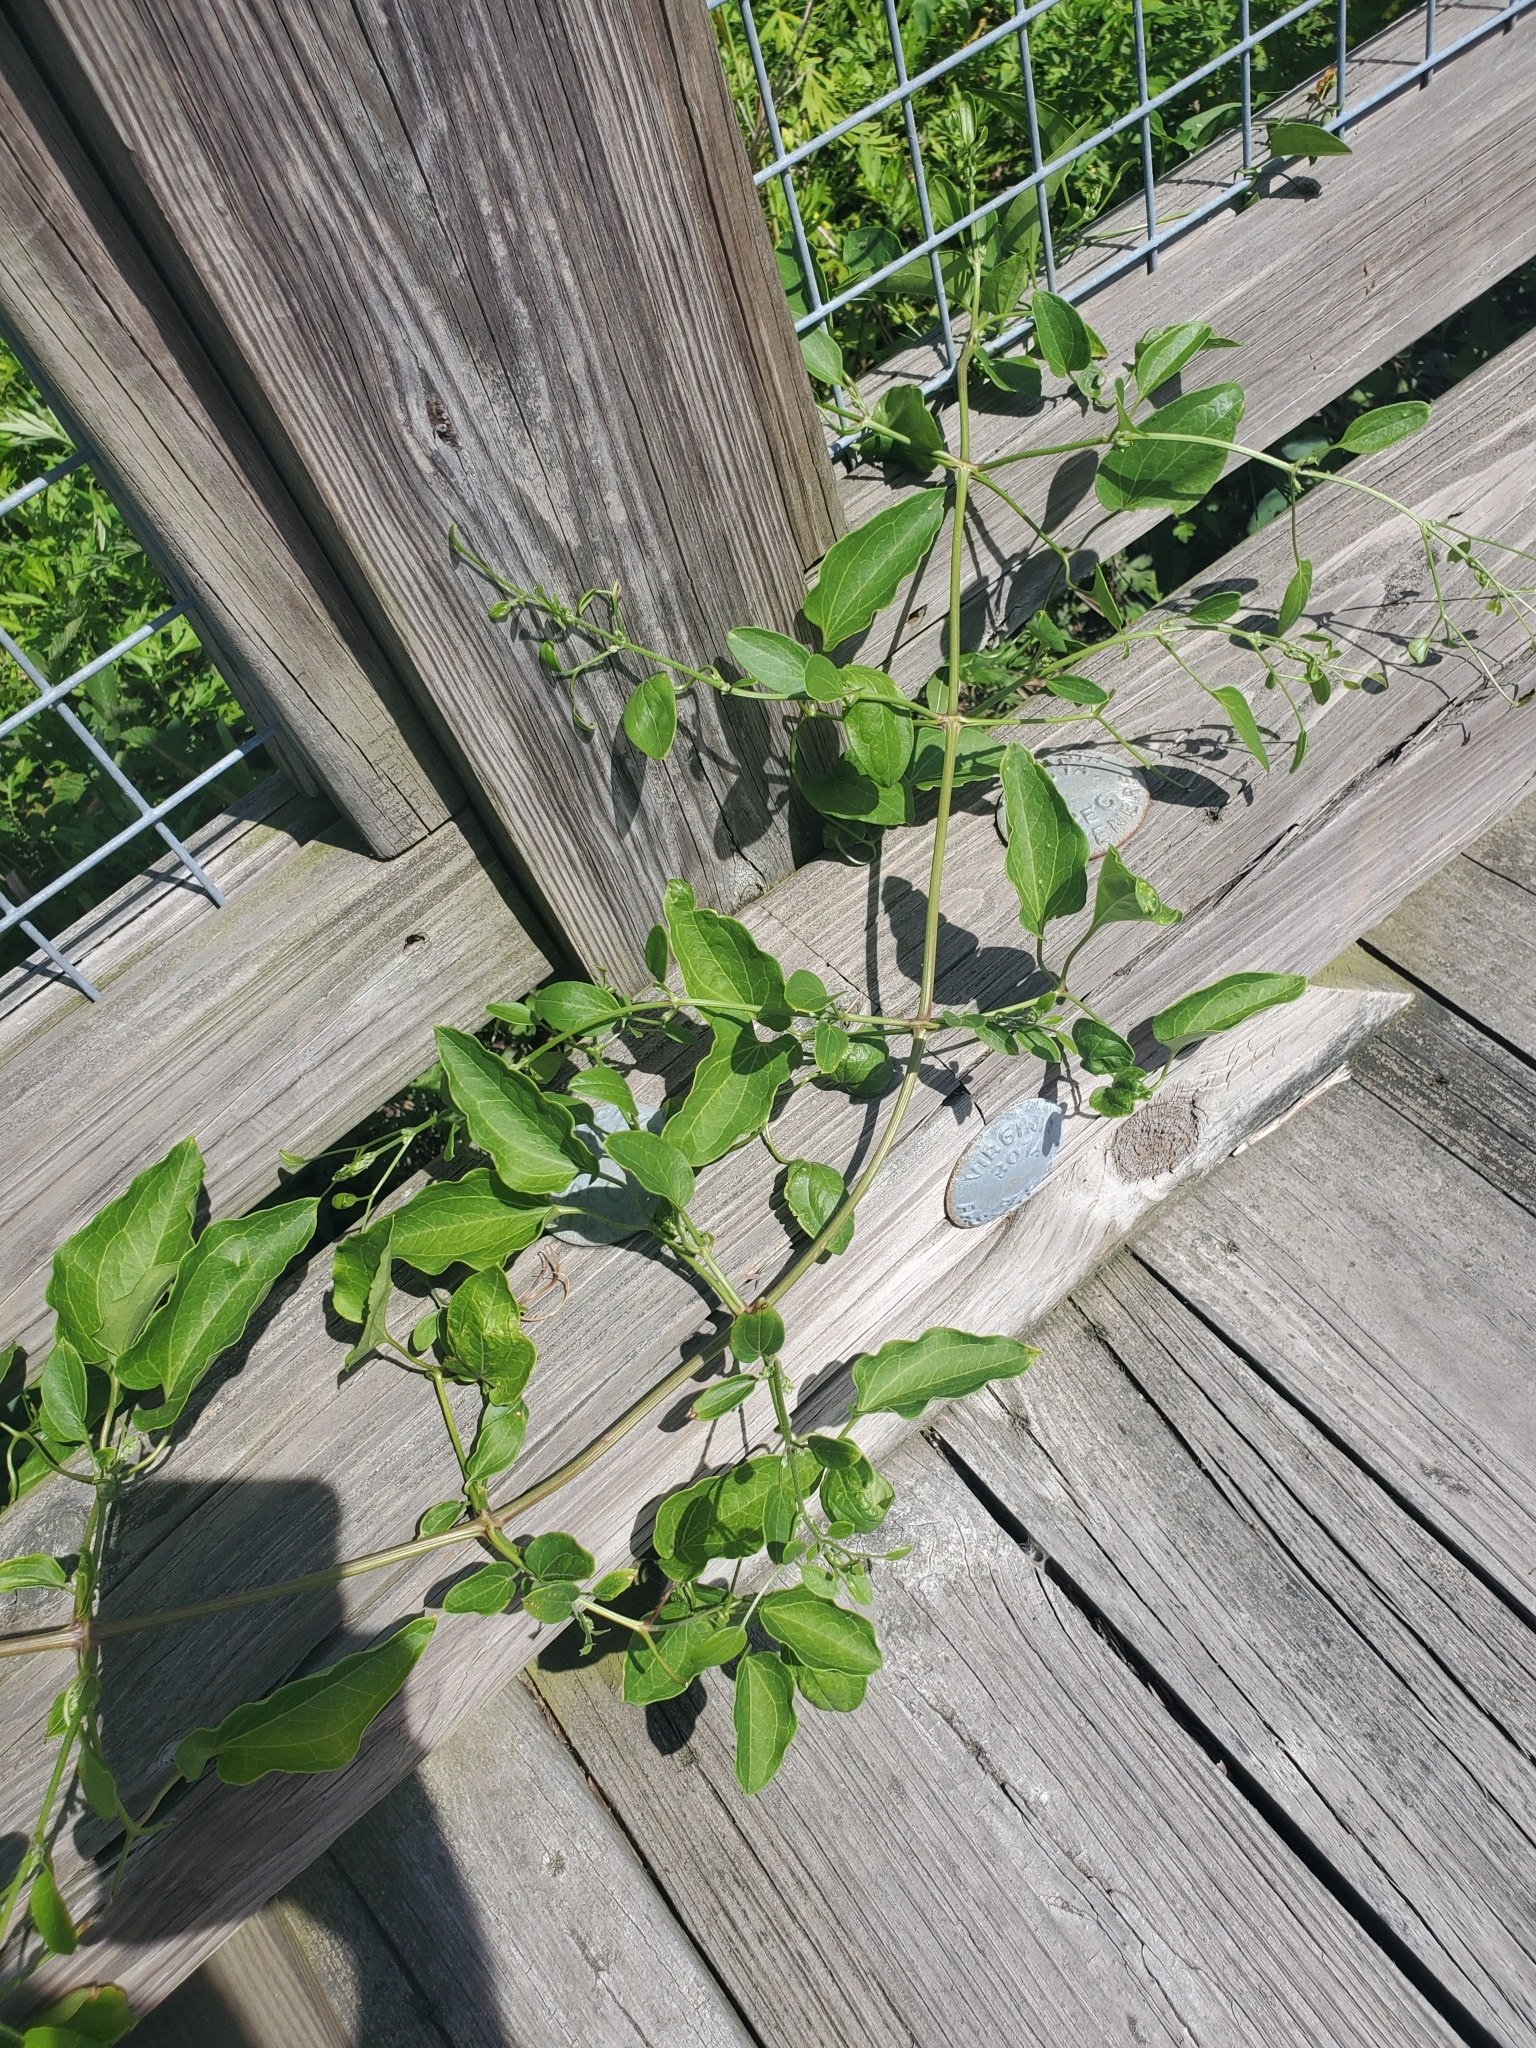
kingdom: Plantae
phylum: Tracheophyta
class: Magnoliopsida
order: Ranunculales
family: Ranunculaceae
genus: Clematis
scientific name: Clematis terniflora
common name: Sweet autumn clematis
